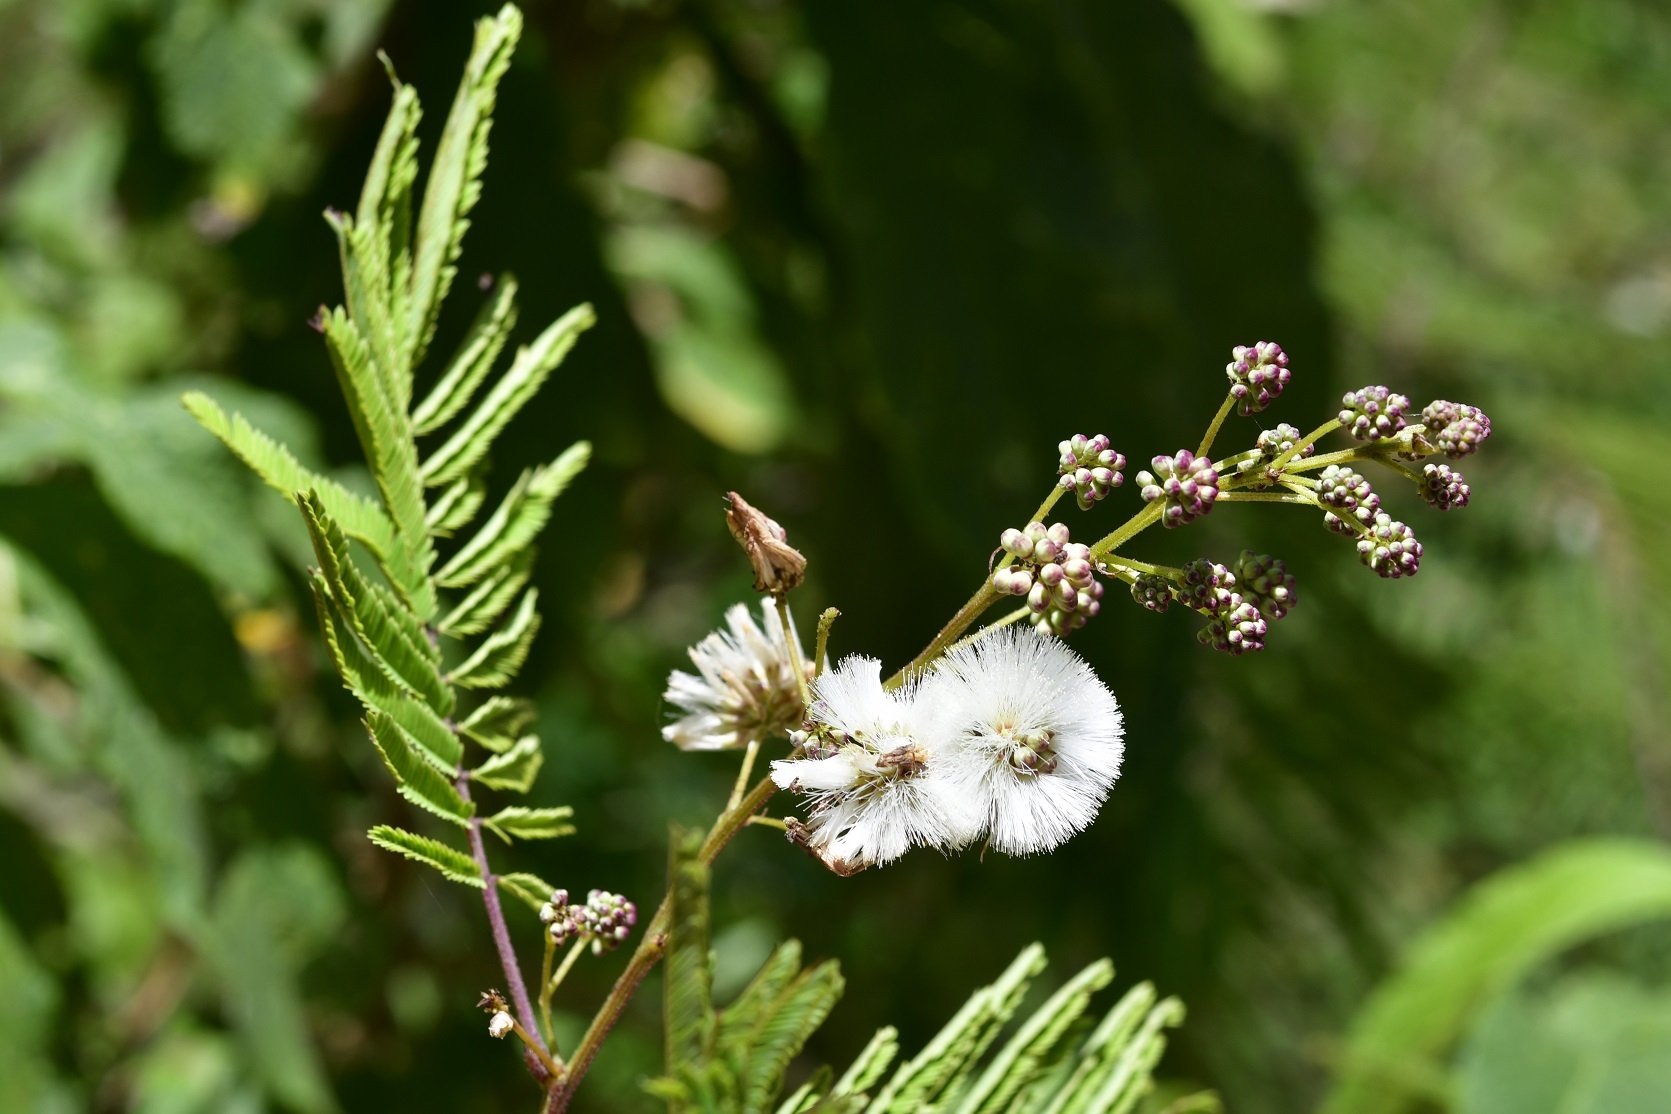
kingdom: Plantae
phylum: Tracheophyta
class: Magnoliopsida
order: Fabales
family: Fabaceae
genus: Acaciella
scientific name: Acaciella angustissima
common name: Prairie acacia
